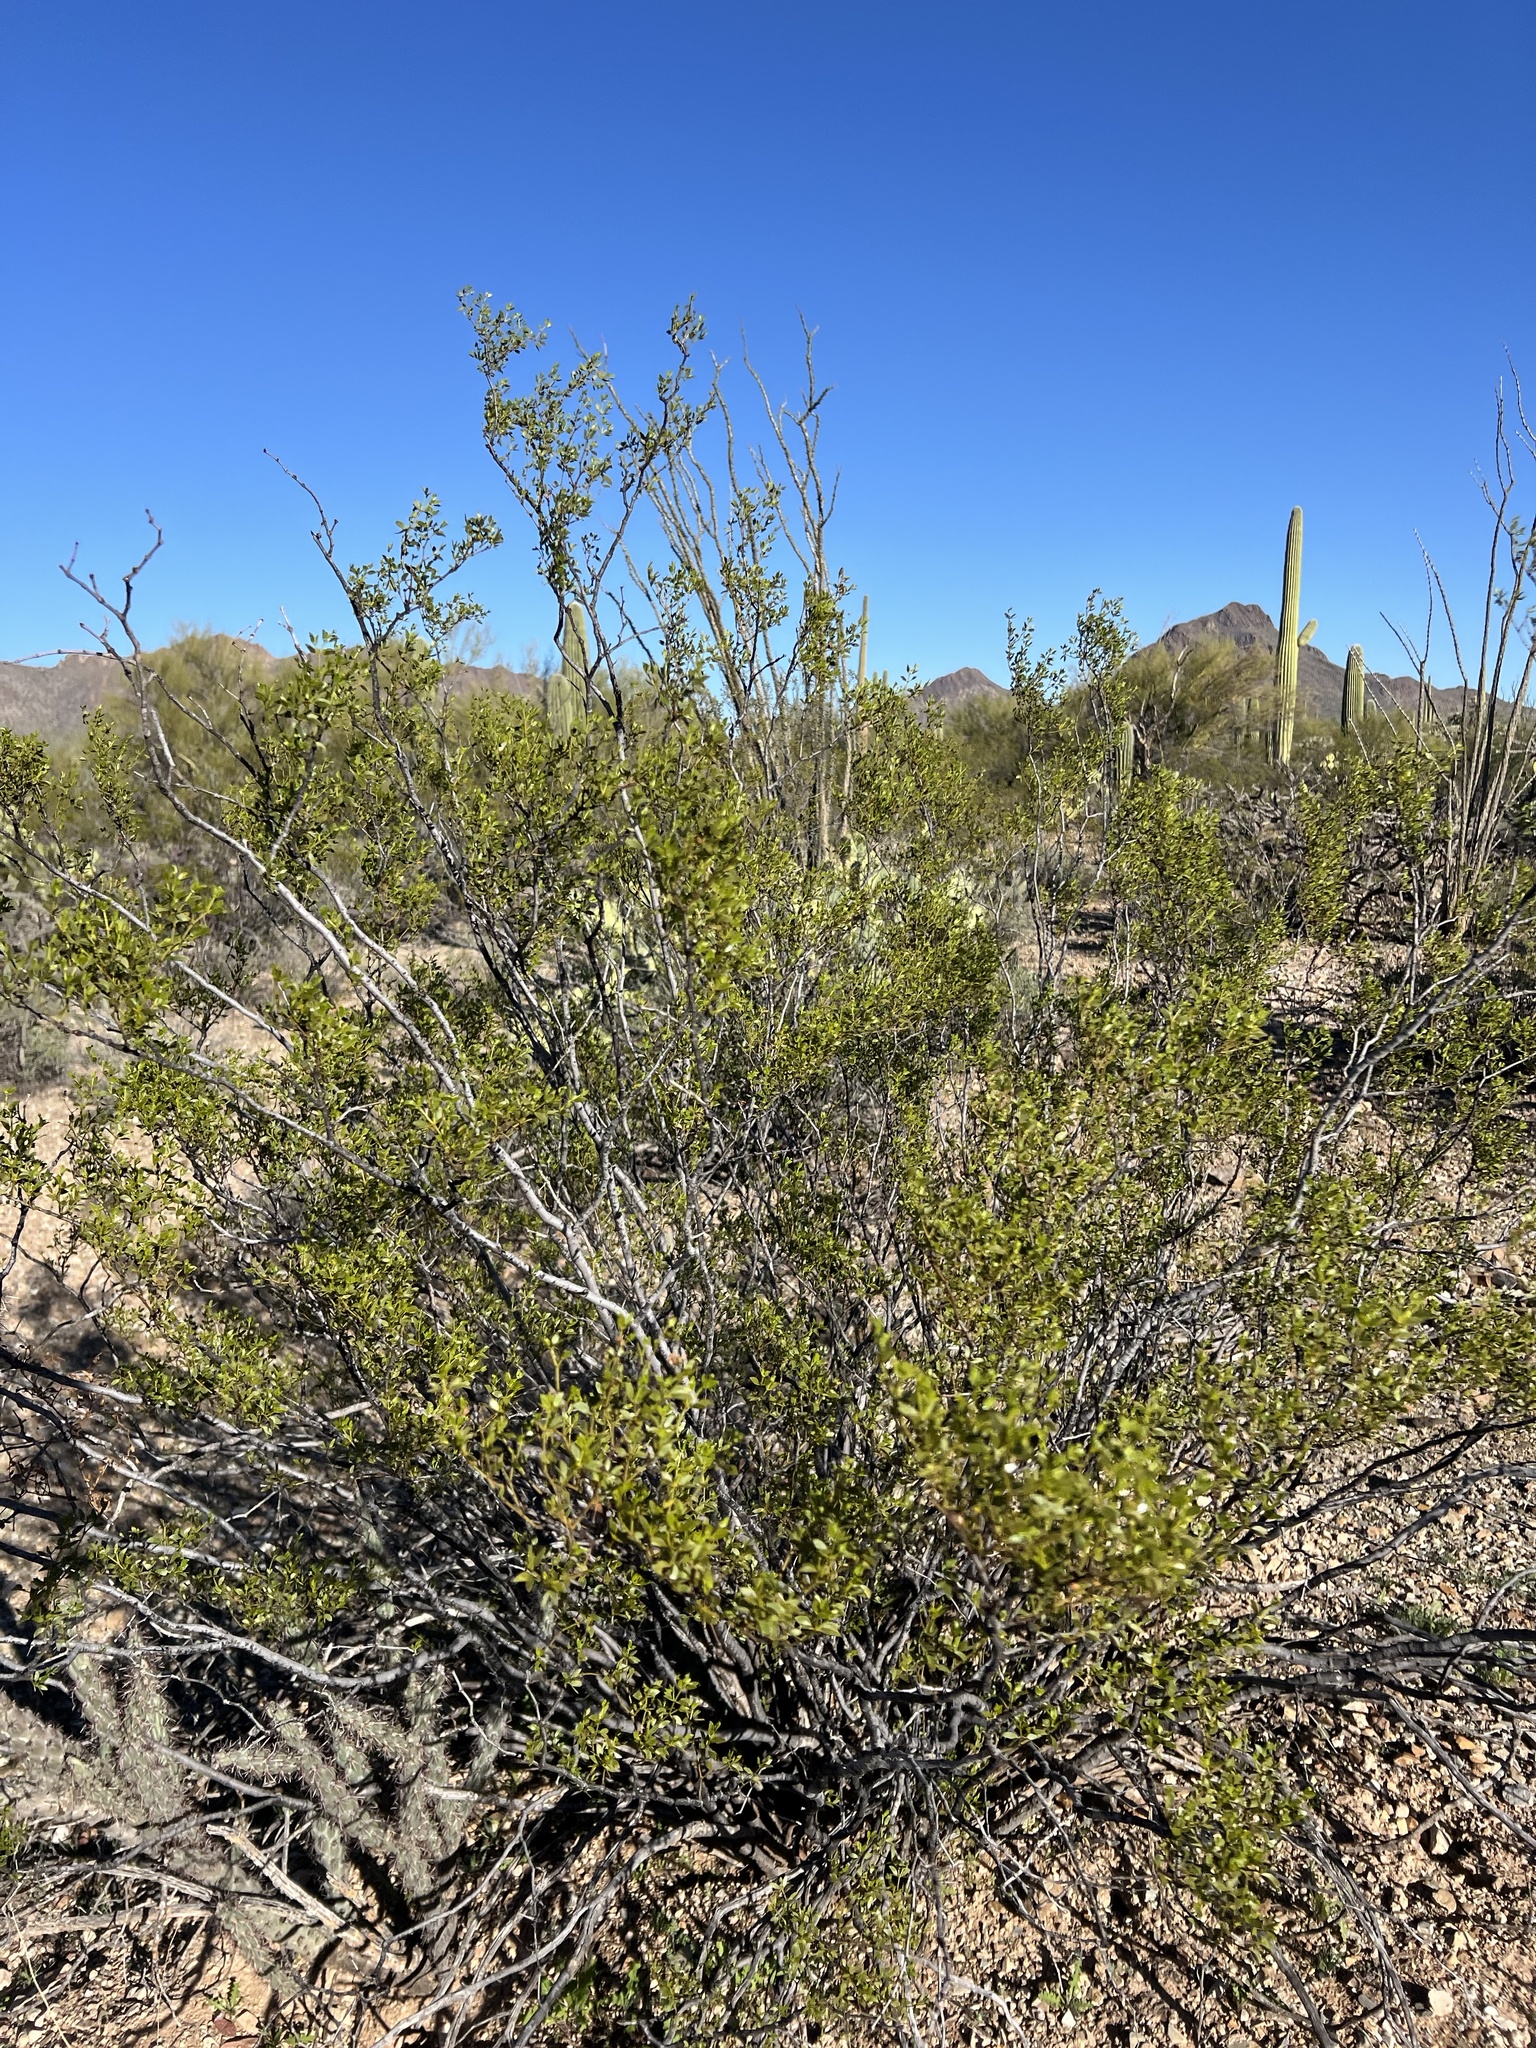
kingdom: Plantae
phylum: Tracheophyta
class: Magnoliopsida
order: Zygophyllales
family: Zygophyllaceae
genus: Larrea
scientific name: Larrea tridentata
